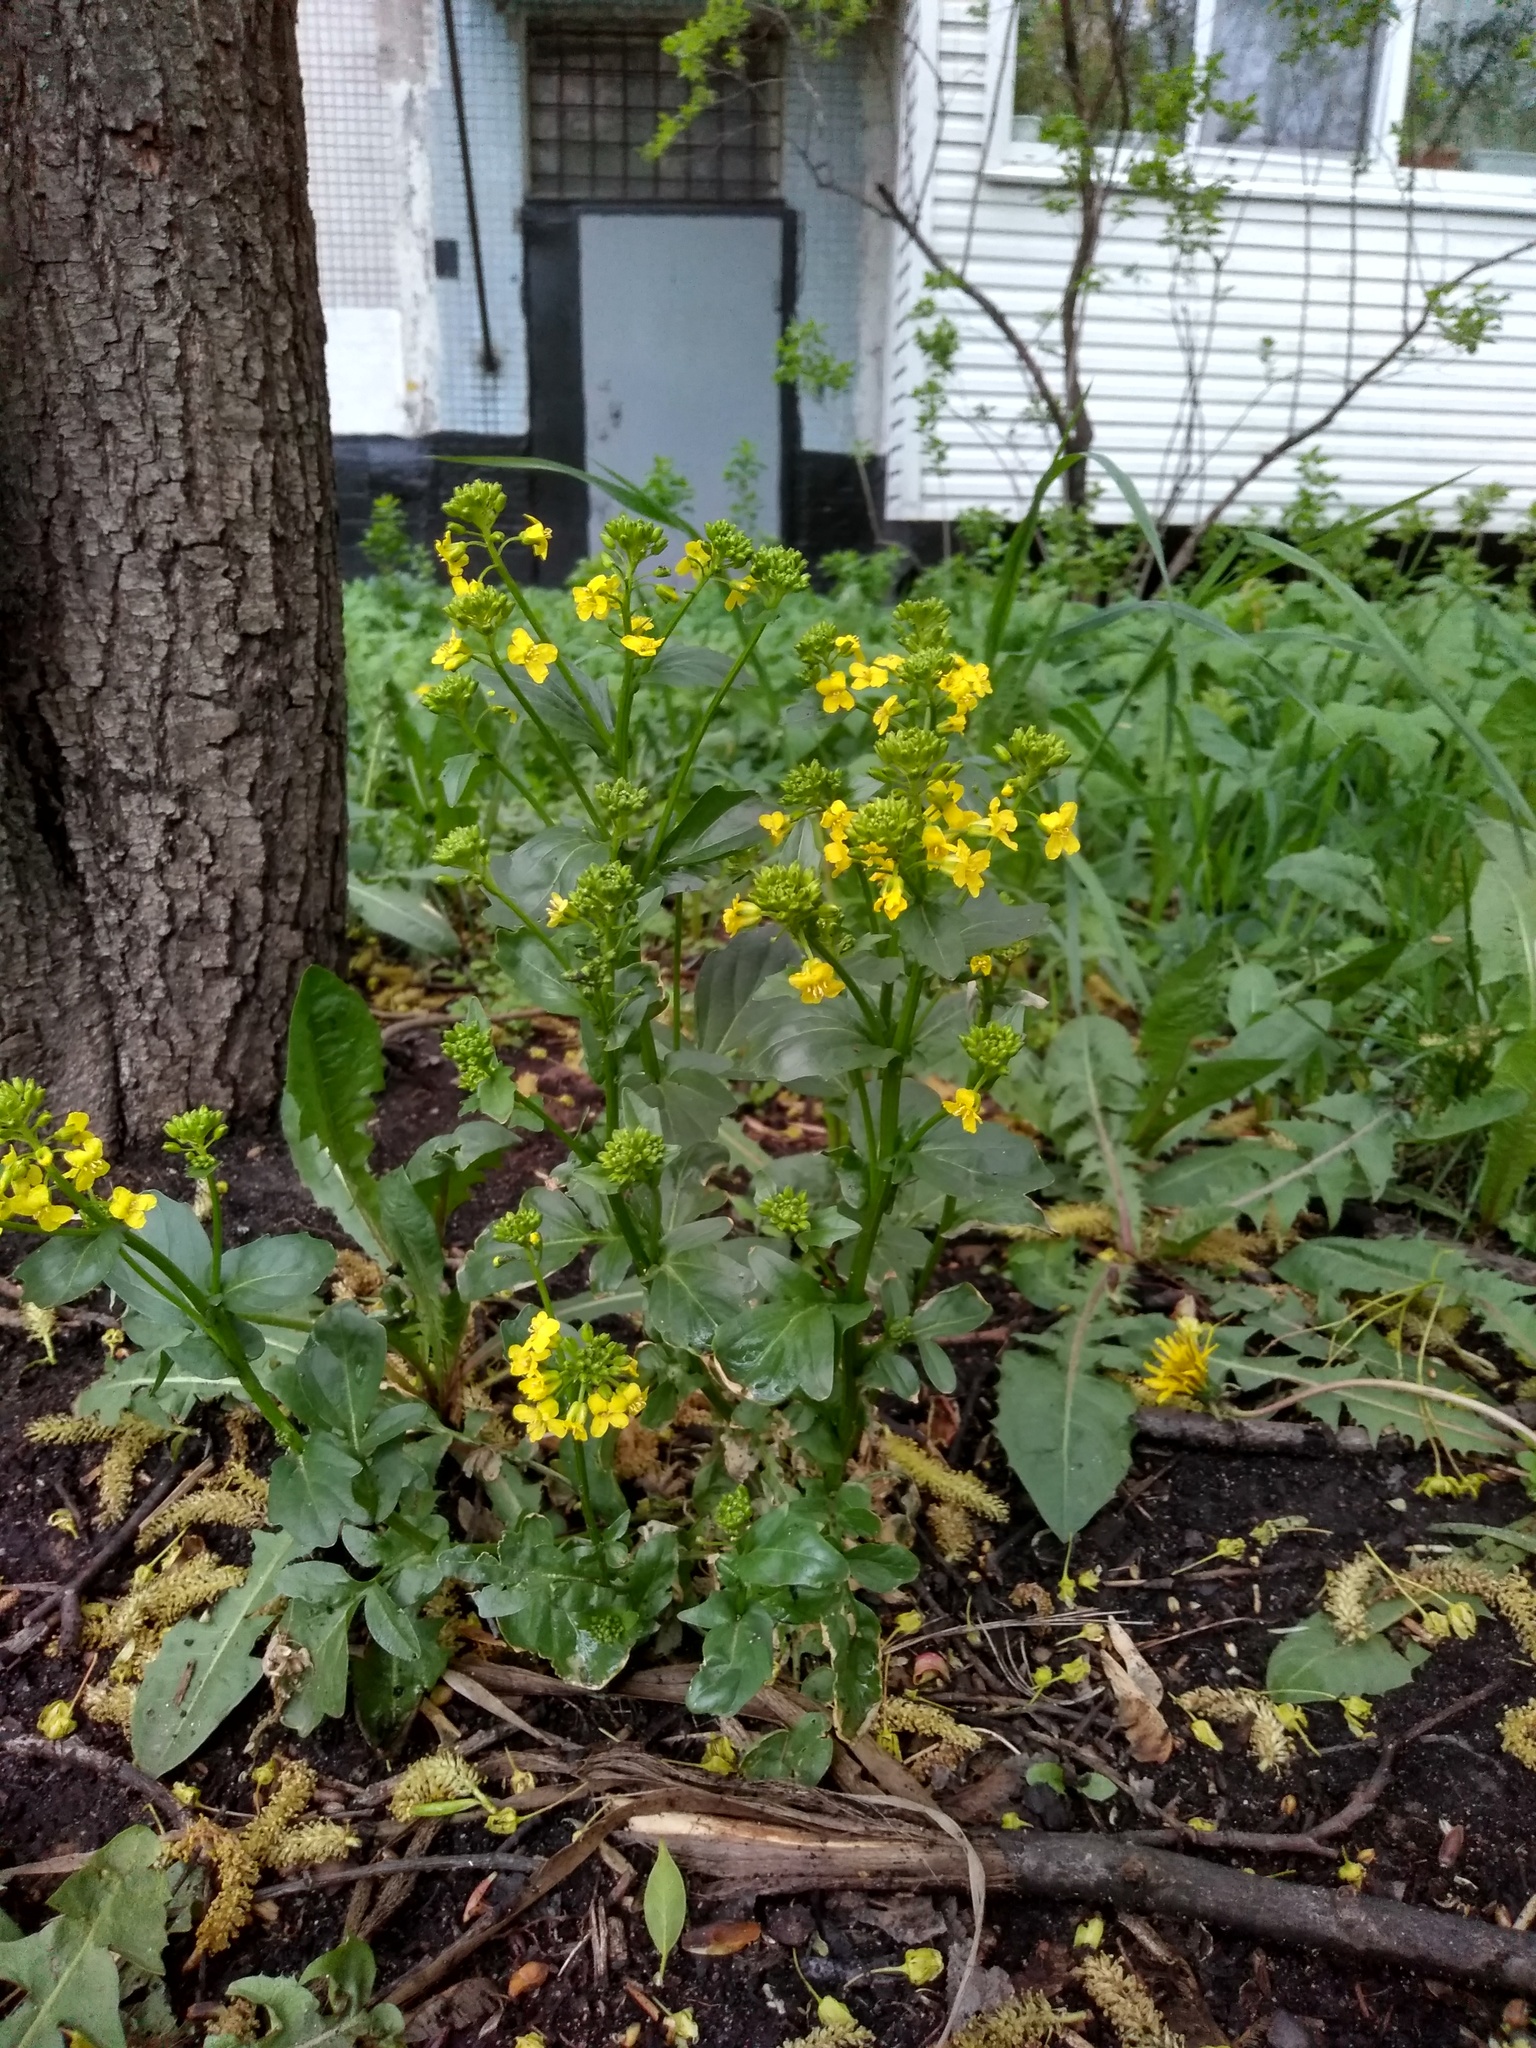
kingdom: Plantae
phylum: Tracheophyta
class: Magnoliopsida
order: Brassicales
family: Brassicaceae
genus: Barbarea
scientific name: Barbarea vulgaris
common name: Cressy-greens
